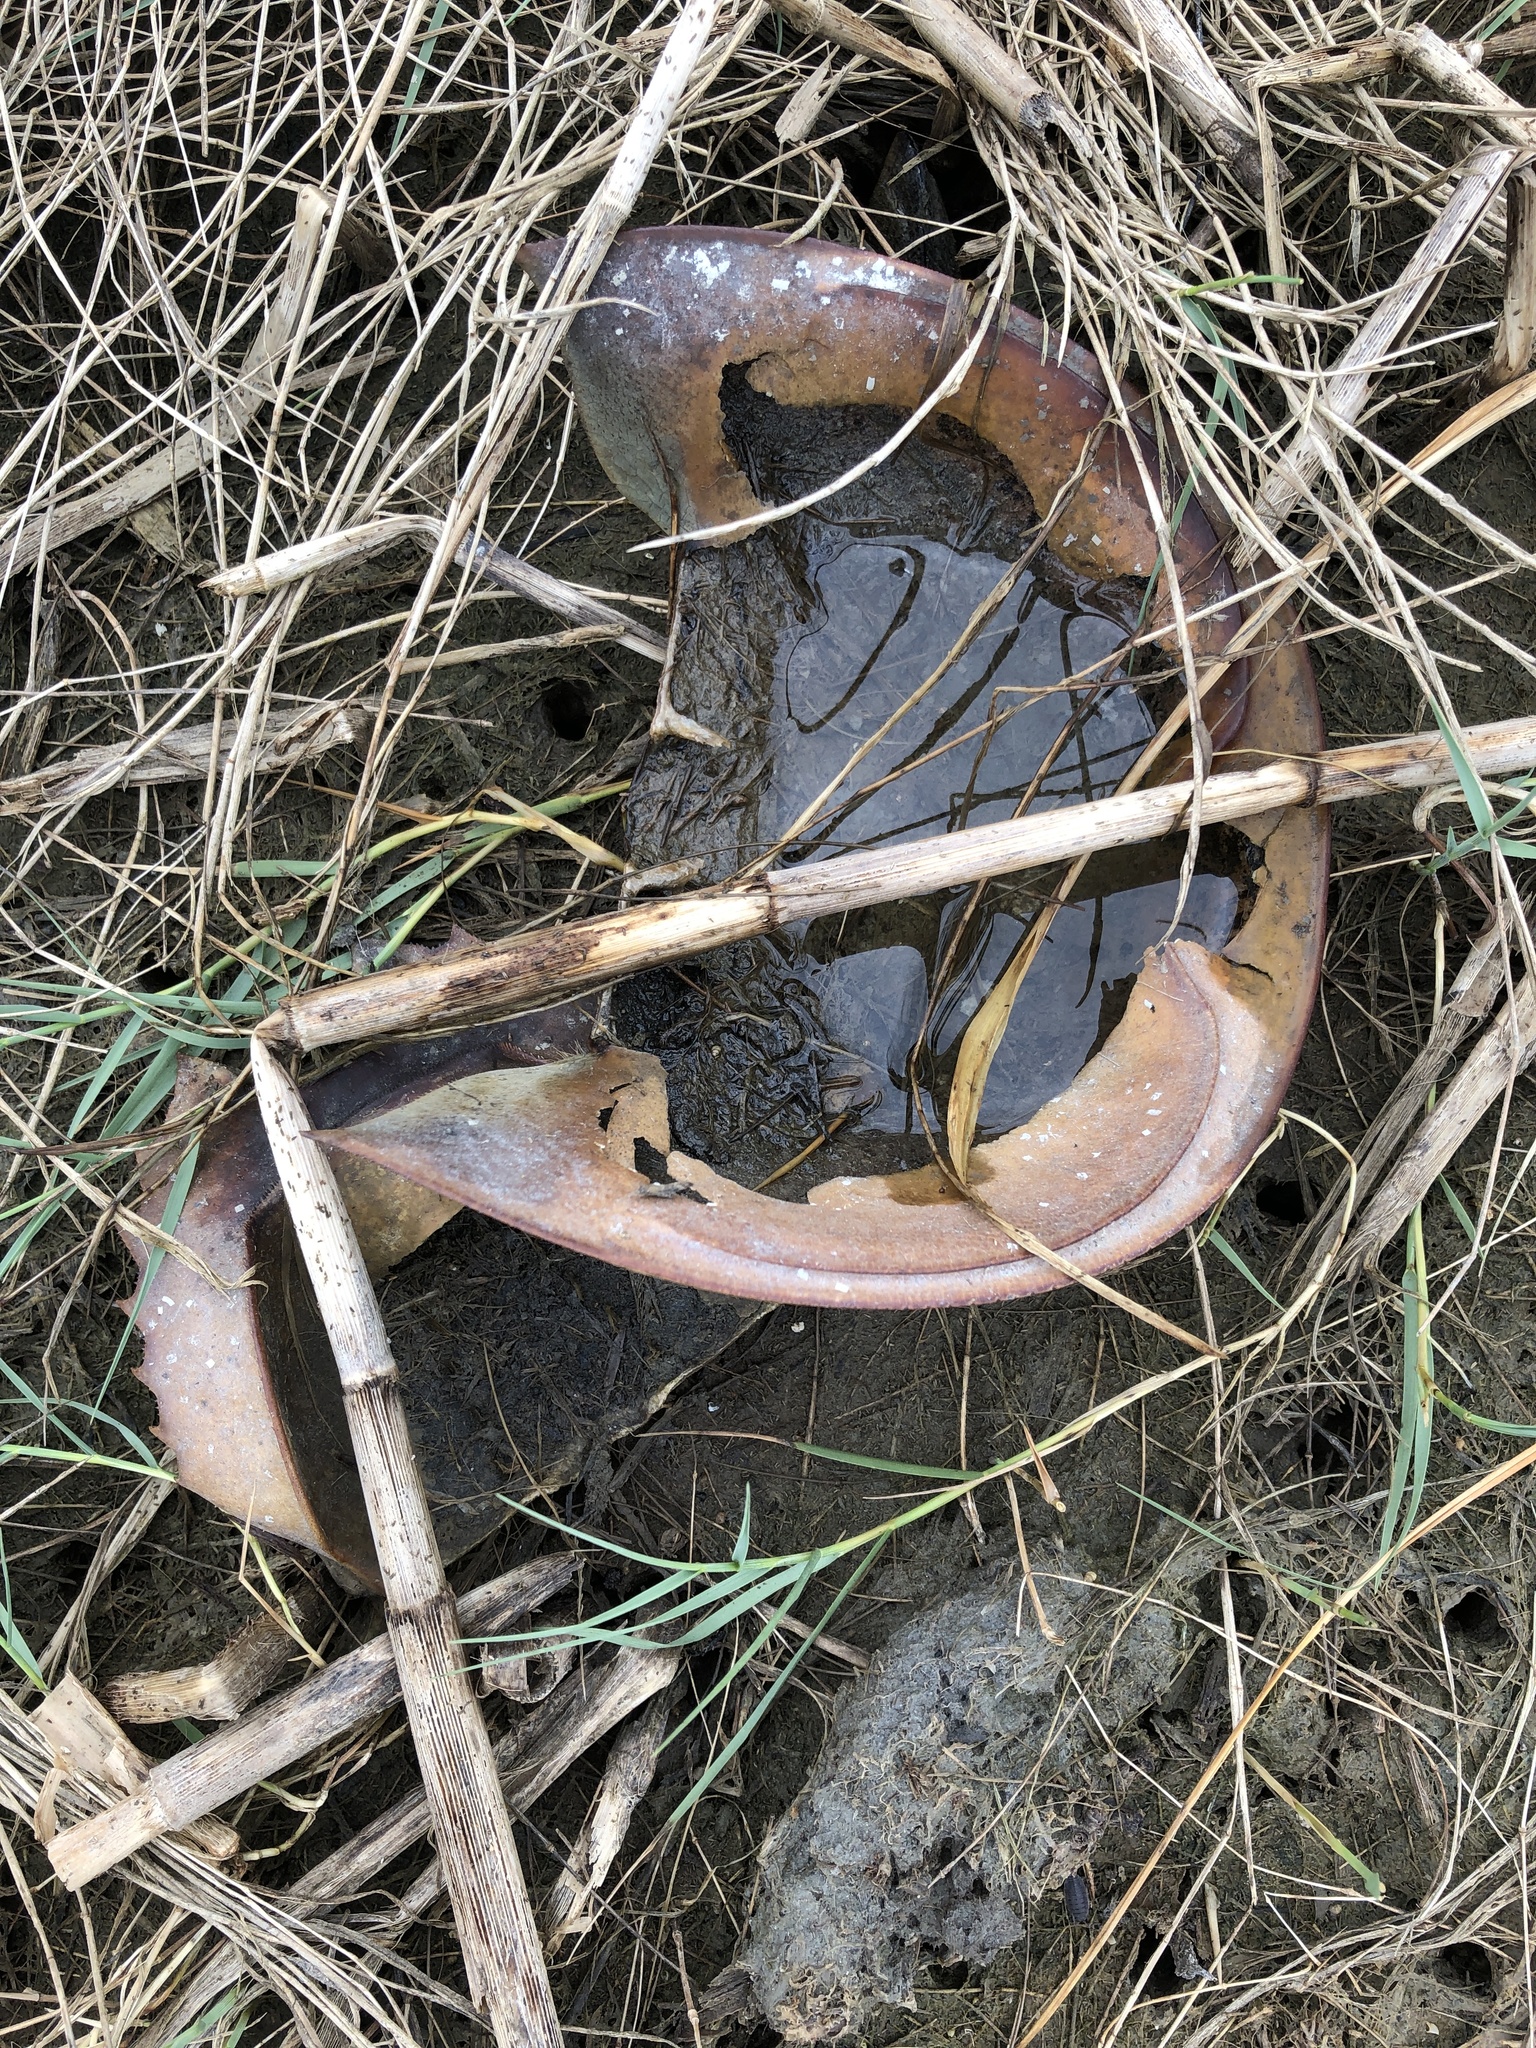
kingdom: Animalia
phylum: Arthropoda
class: Merostomata
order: Xiphosurida
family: Limulidae
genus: Limulus
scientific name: Limulus polyphemus
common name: Horseshoe crab
